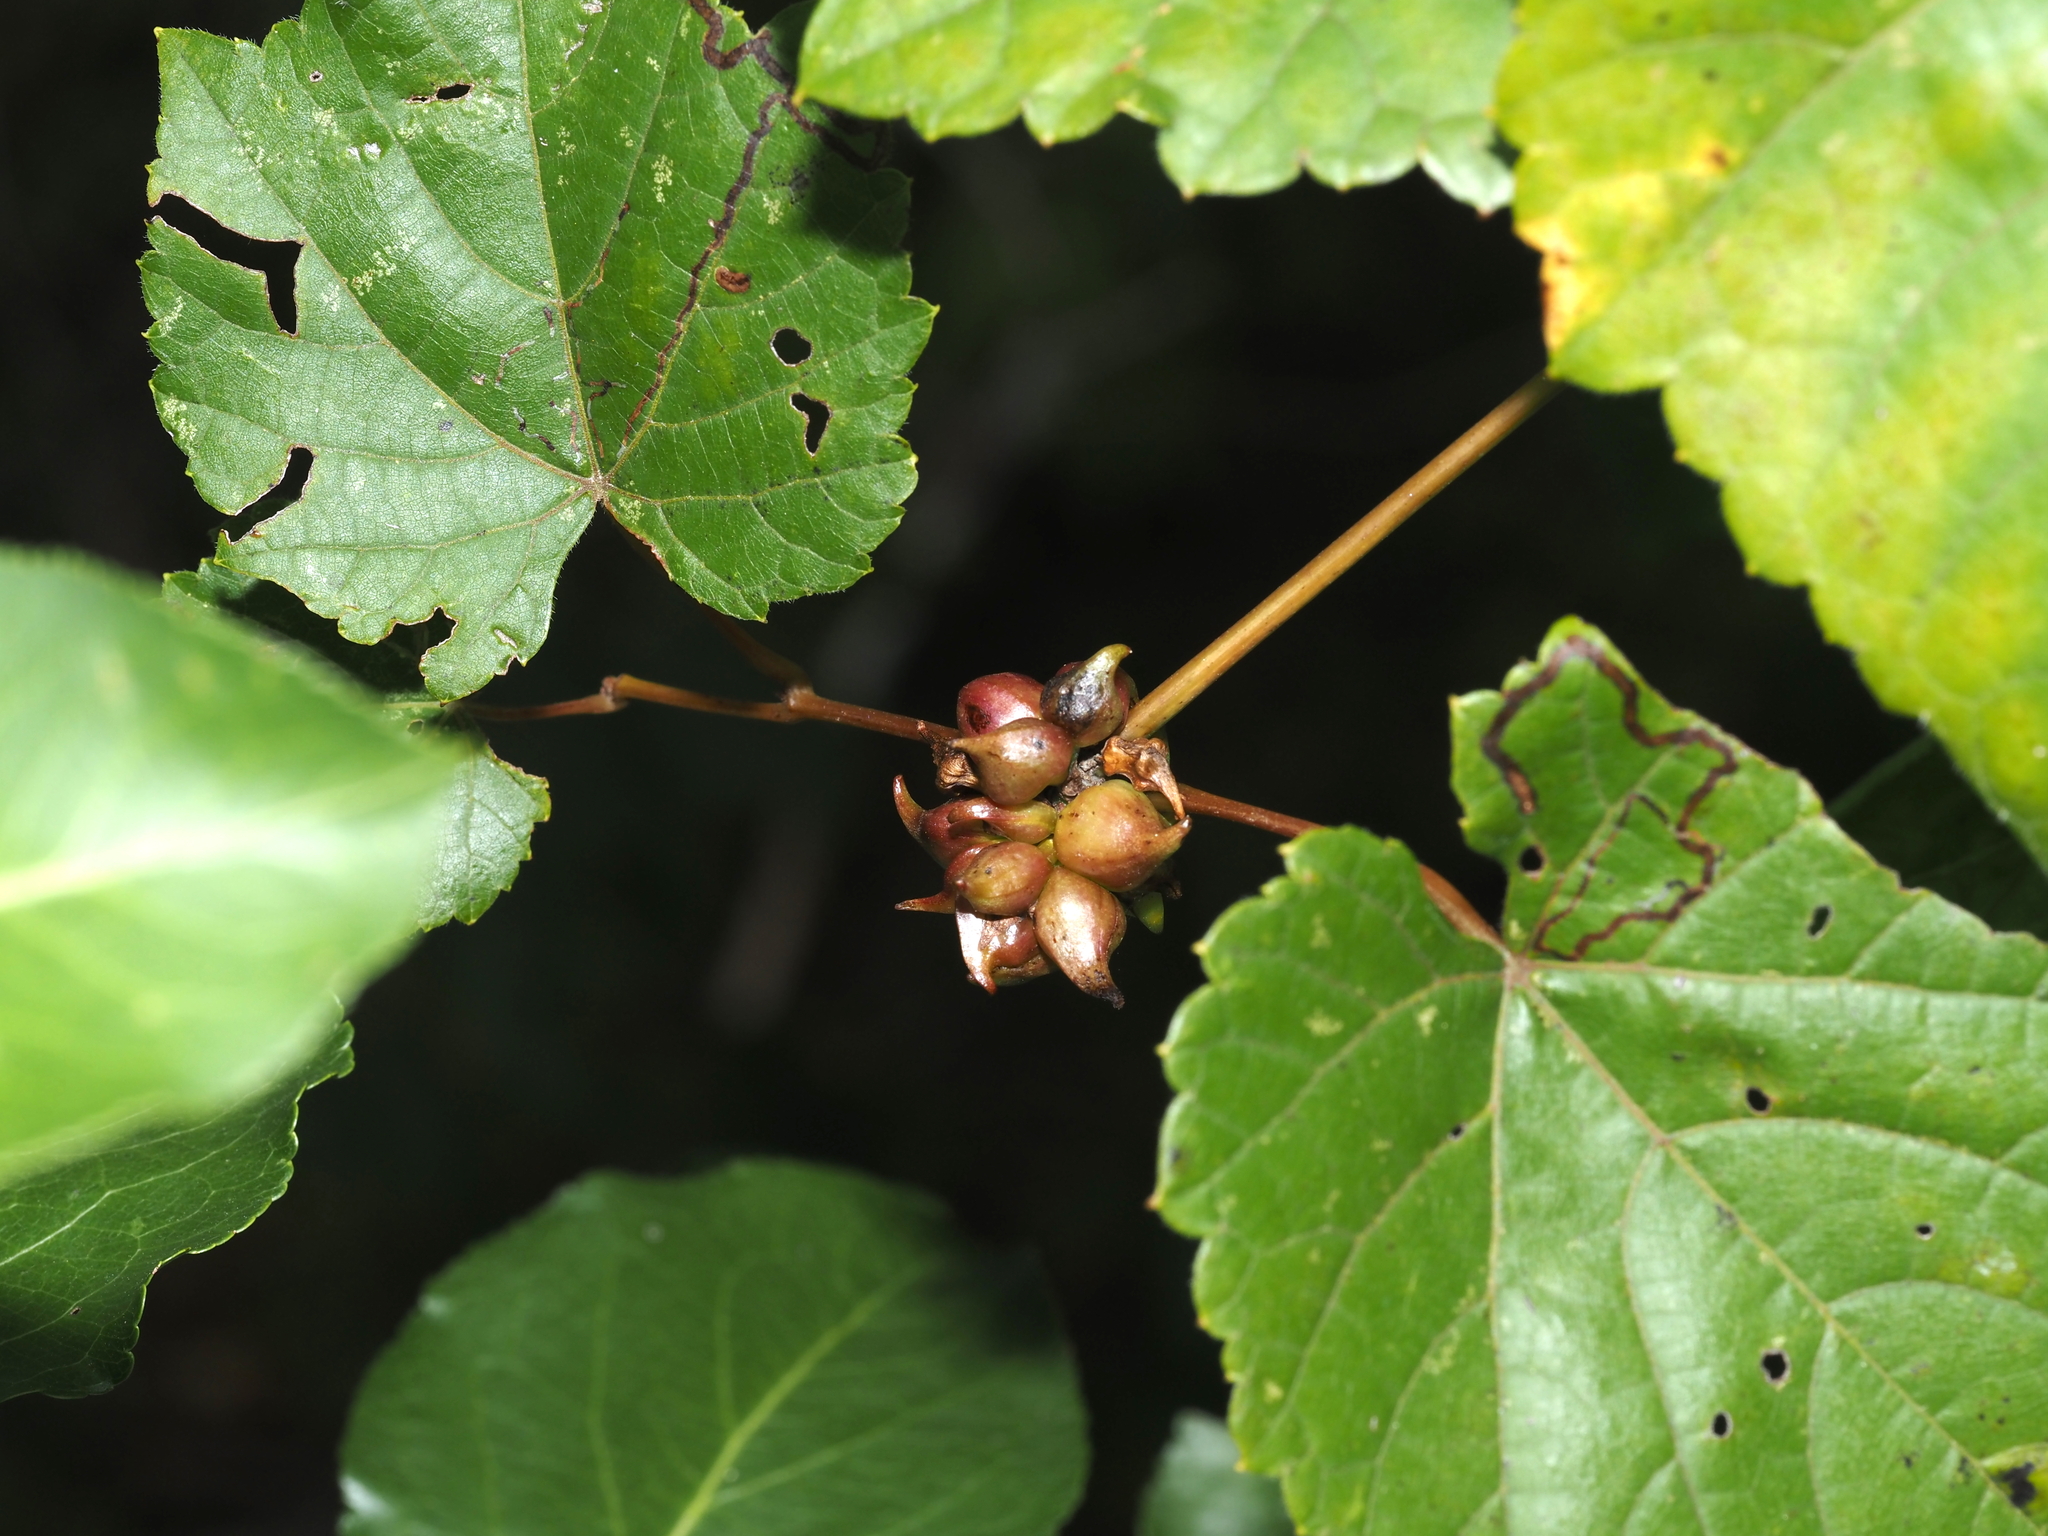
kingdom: Animalia
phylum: Arthropoda
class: Insecta
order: Diptera
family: Cecidomyiidae
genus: Ampelomyia
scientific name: Ampelomyia vitiscoryloides
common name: Grape filbert gall
